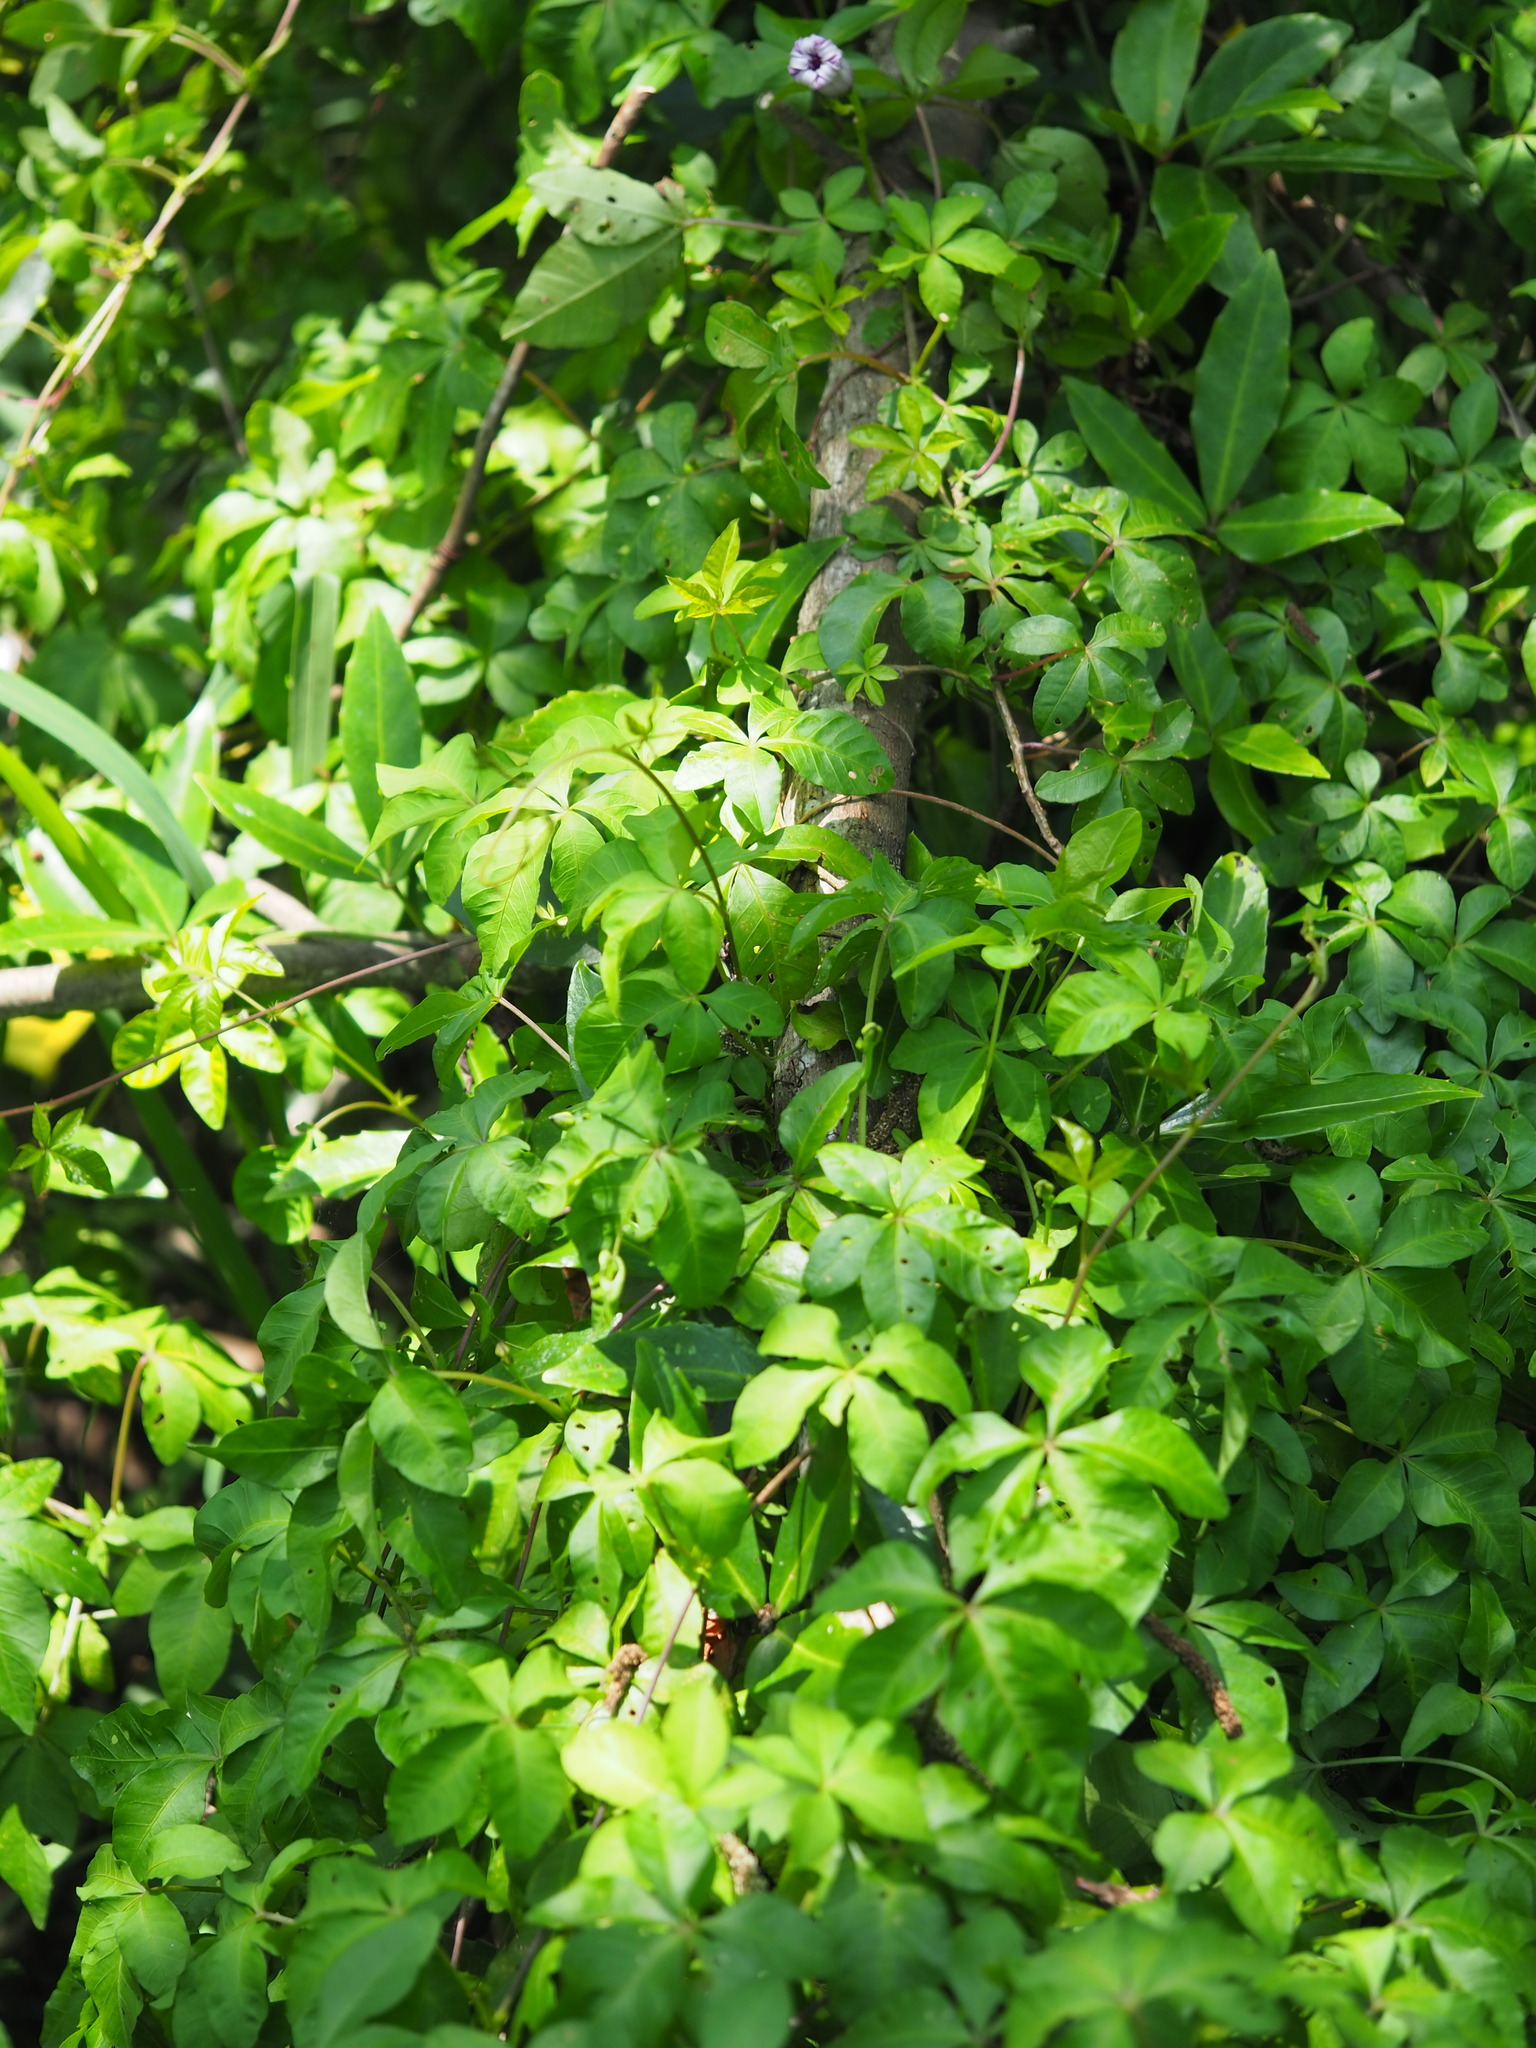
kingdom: Plantae
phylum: Tracheophyta
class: Magnoliopsida
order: Solanales
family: Convolvulaceae
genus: Ipomoea
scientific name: Ipomoea cairica
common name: Mile a minute vine
